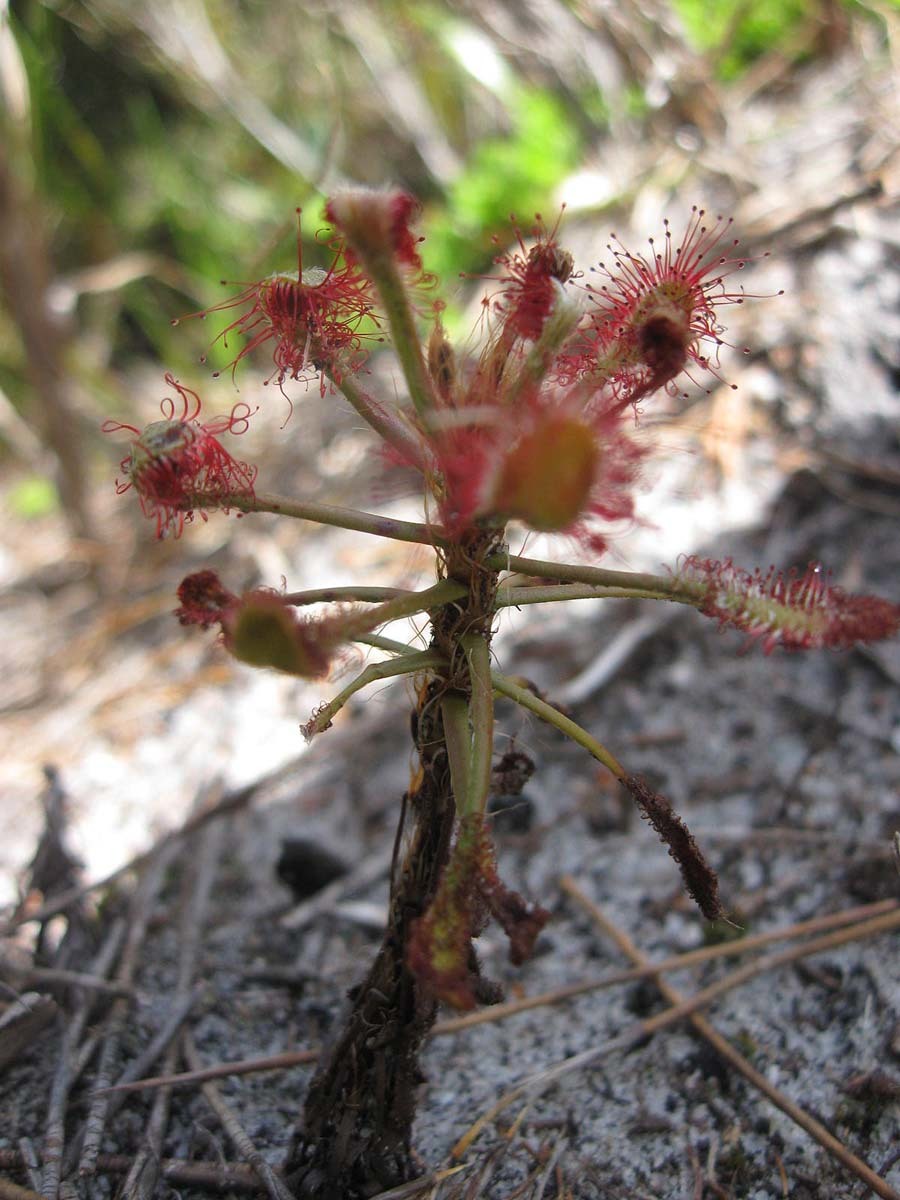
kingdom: Plantae
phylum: Tracheophyta
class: Magnoliopsida
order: Caryophyllales
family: Droseraceae
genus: Drosera
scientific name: Drosera glabripes
